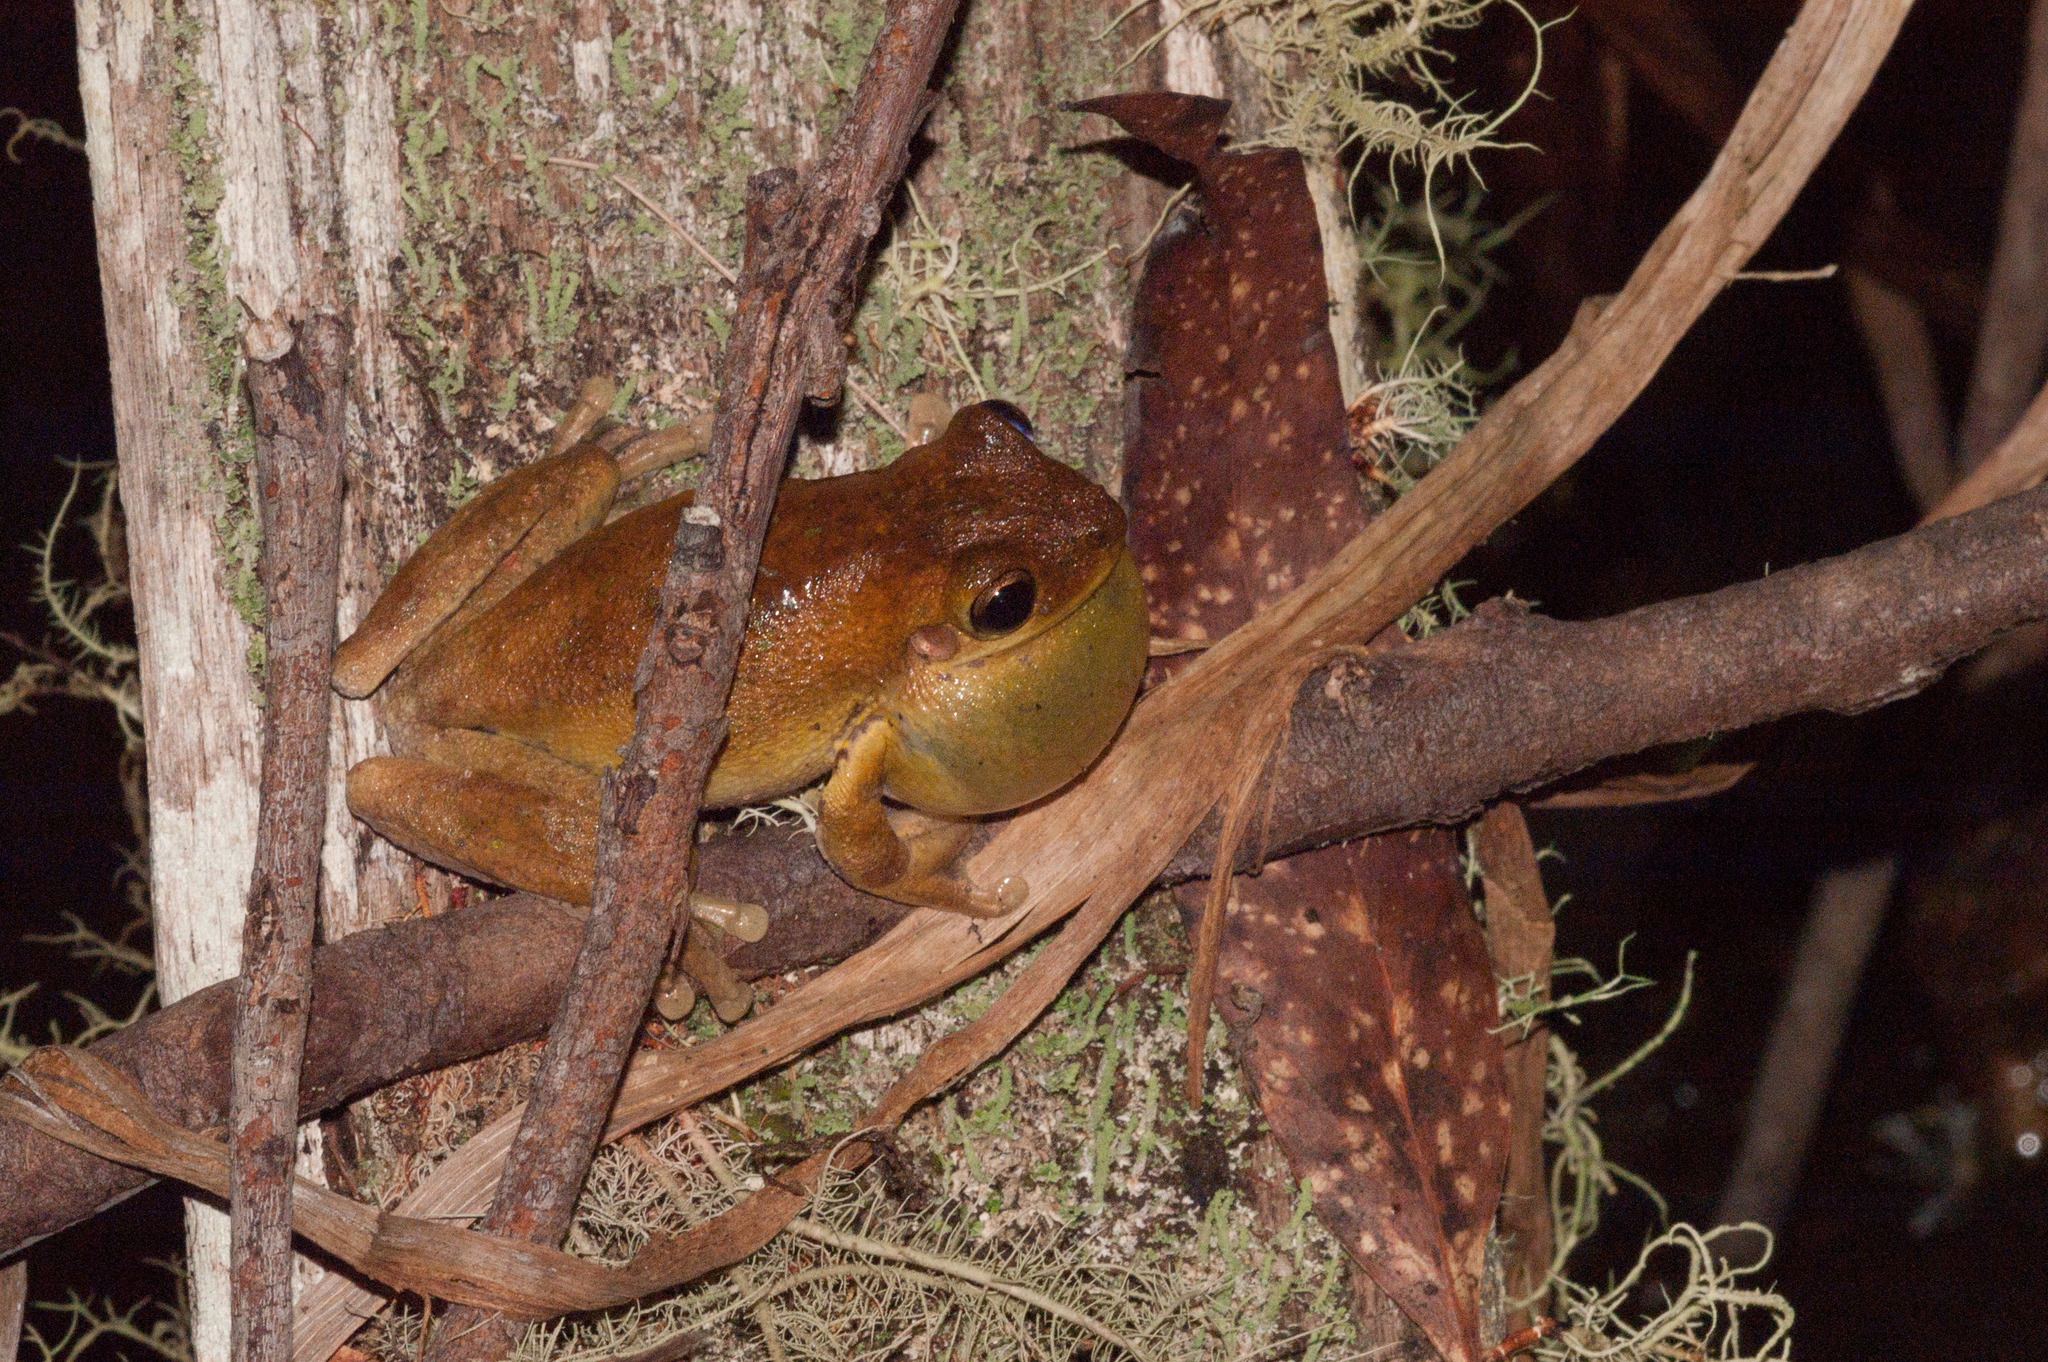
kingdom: Animalia
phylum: Chordata
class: Amphibia
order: Anura
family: Pelodryadidae
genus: Litoria
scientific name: Litoria tyleri
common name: Laughing tree frog
